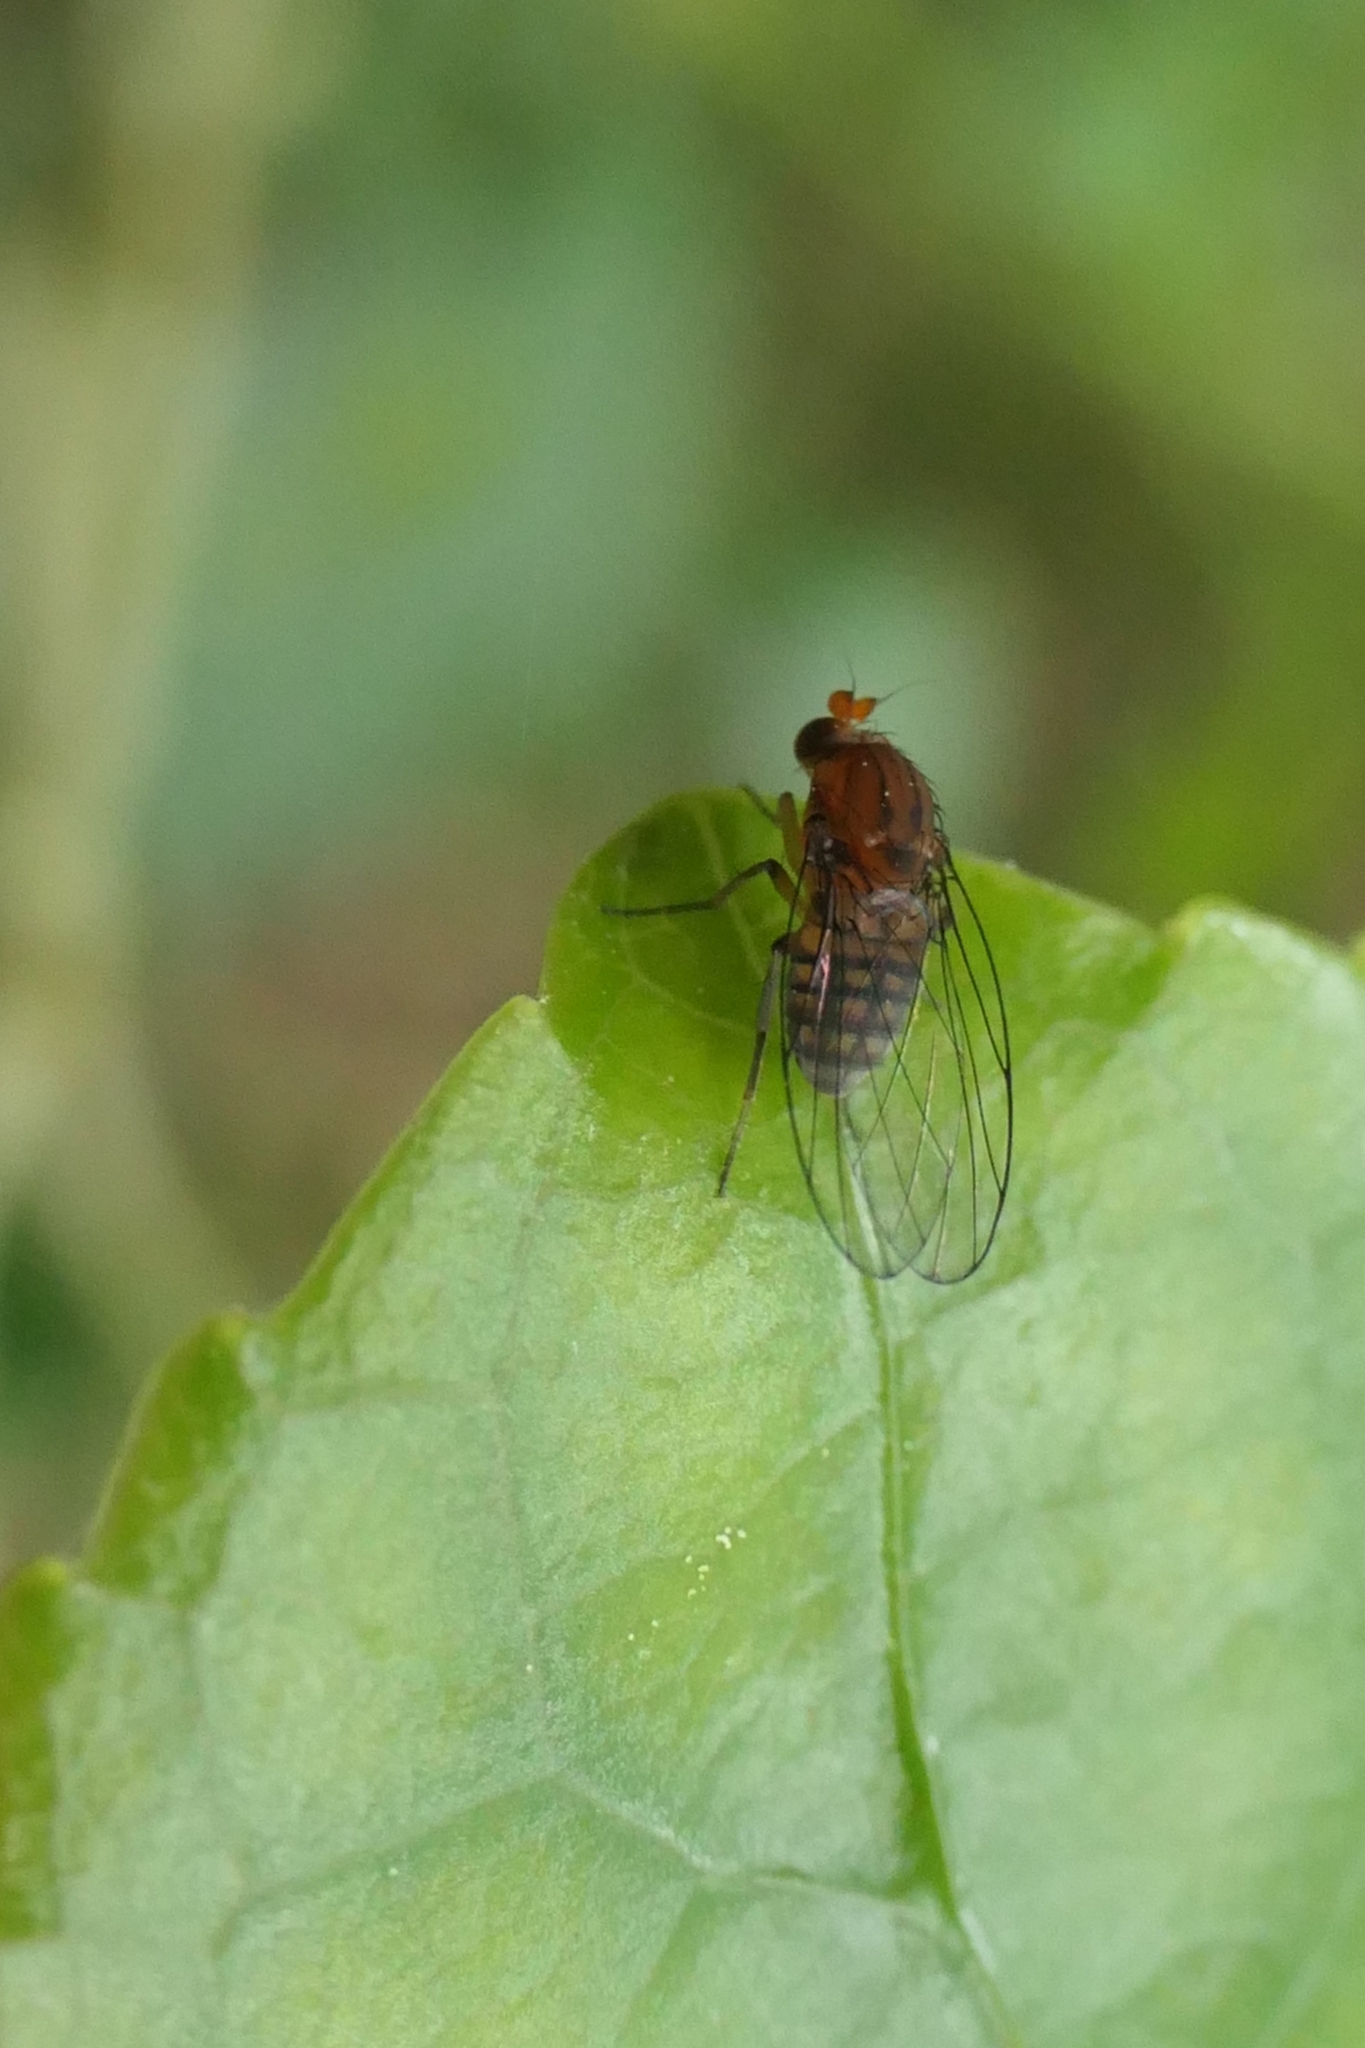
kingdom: Animalia
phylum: Arthropoda
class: Insecta
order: Diptera
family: Phoridae
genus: Sciadocera
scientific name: Sciadocera rufomaculata
